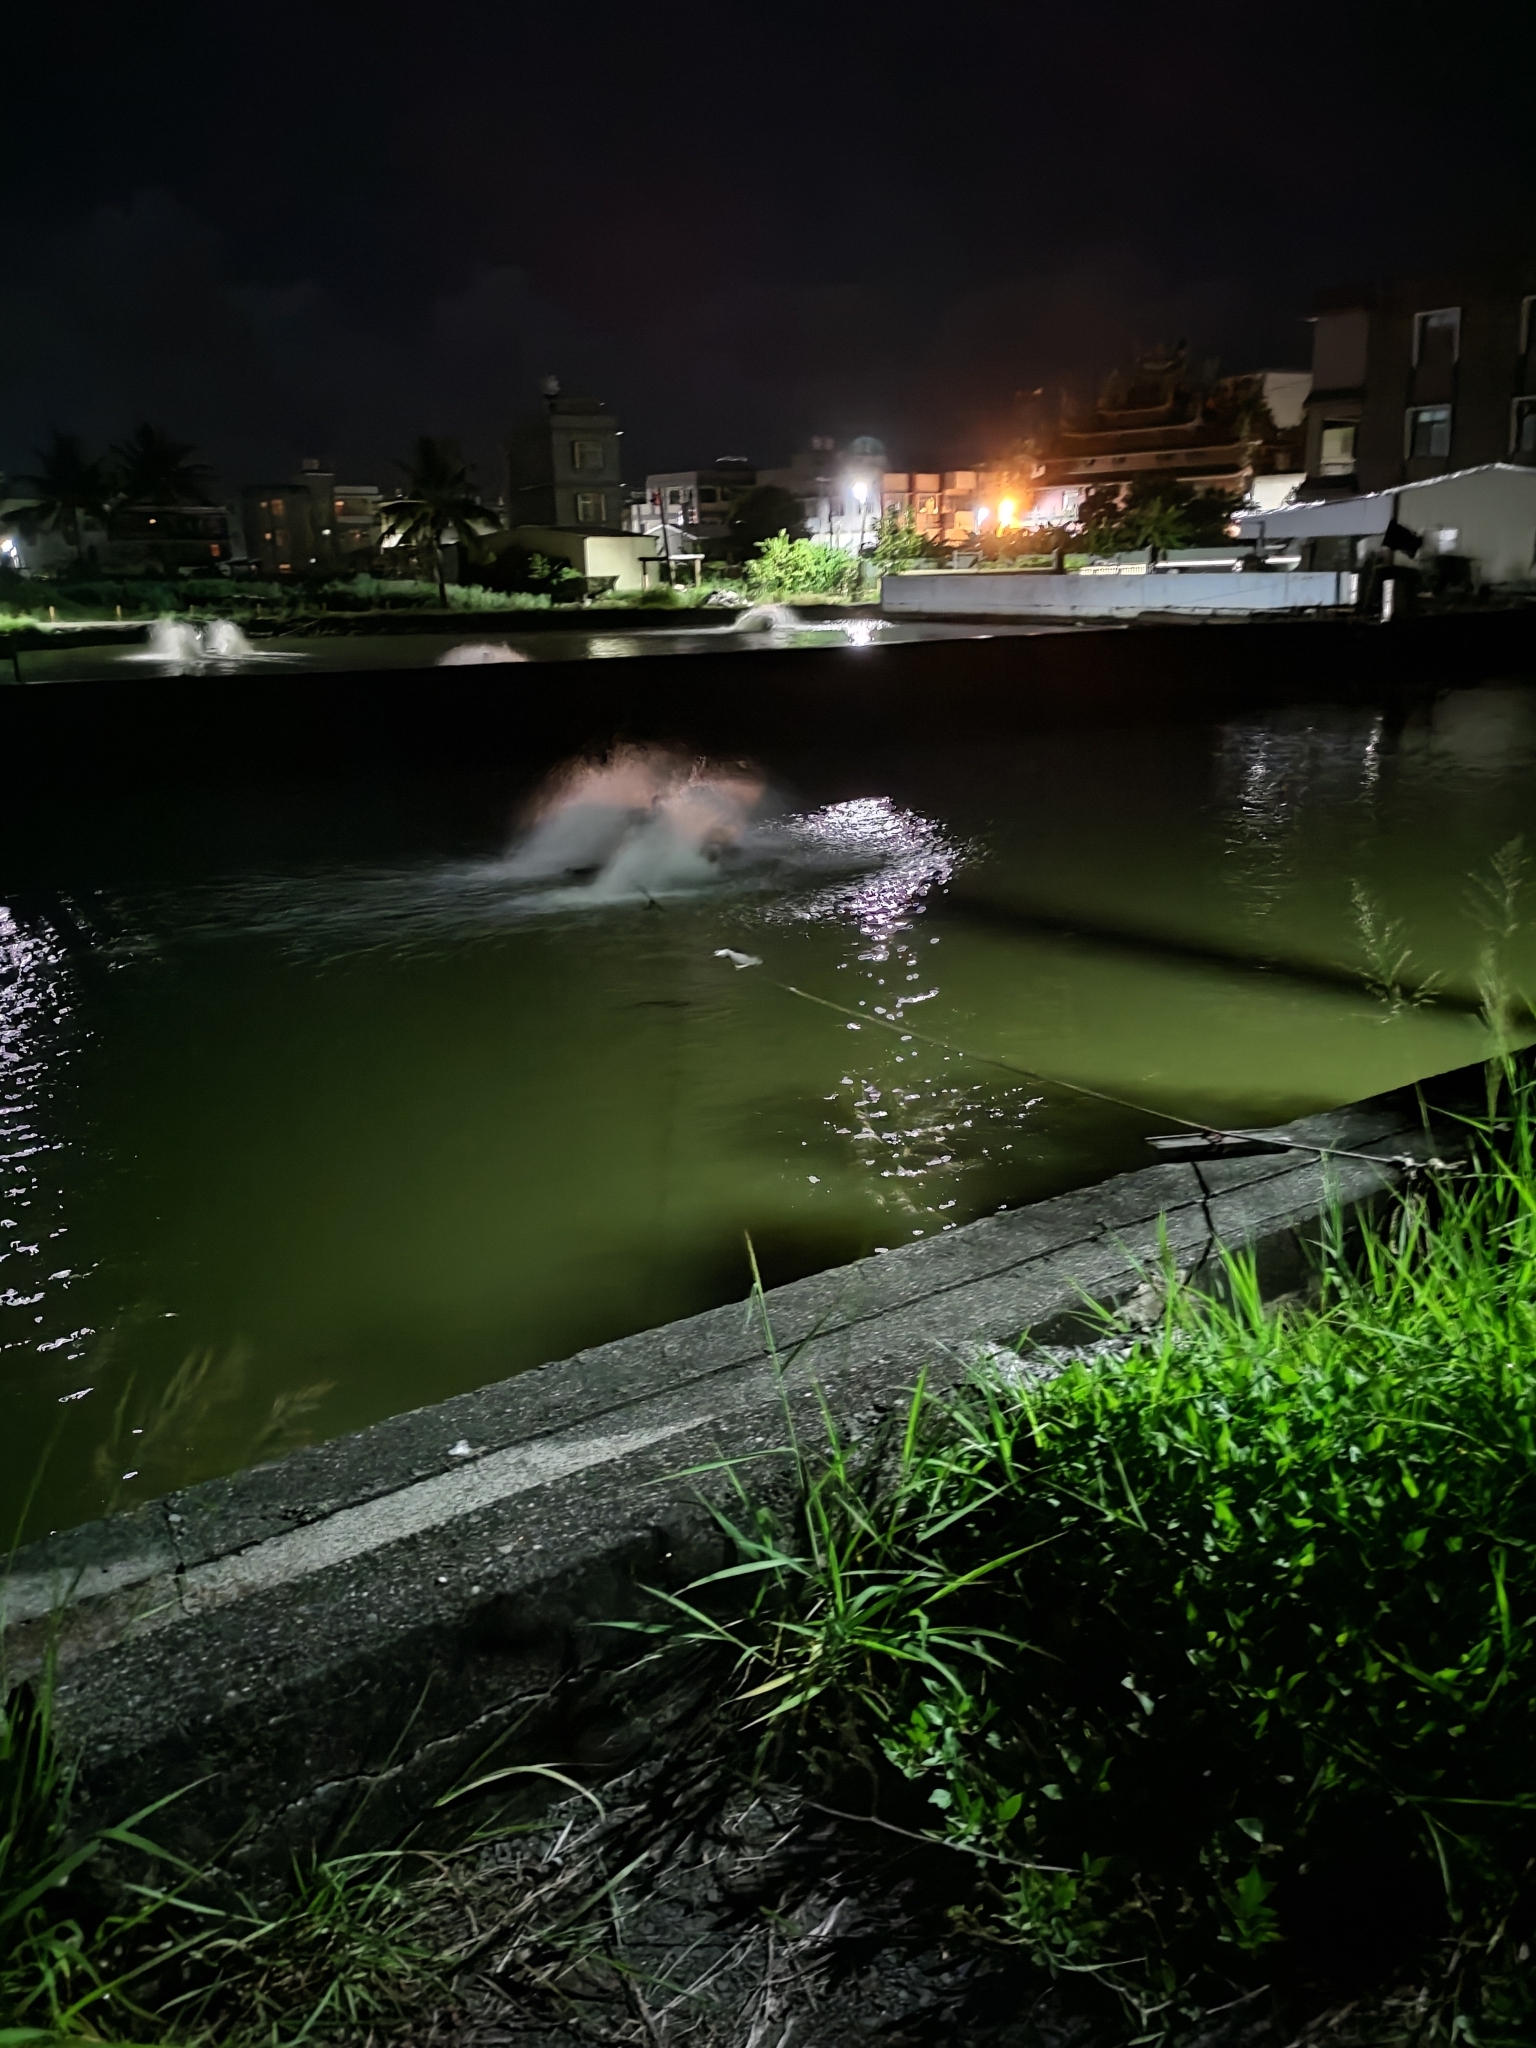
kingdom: Animalia
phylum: Chordata
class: Aves
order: Pelecaniformes
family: Ardeidae
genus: Nycticorax
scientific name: Nycticorax nycticorax
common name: Black-crowned night heron
